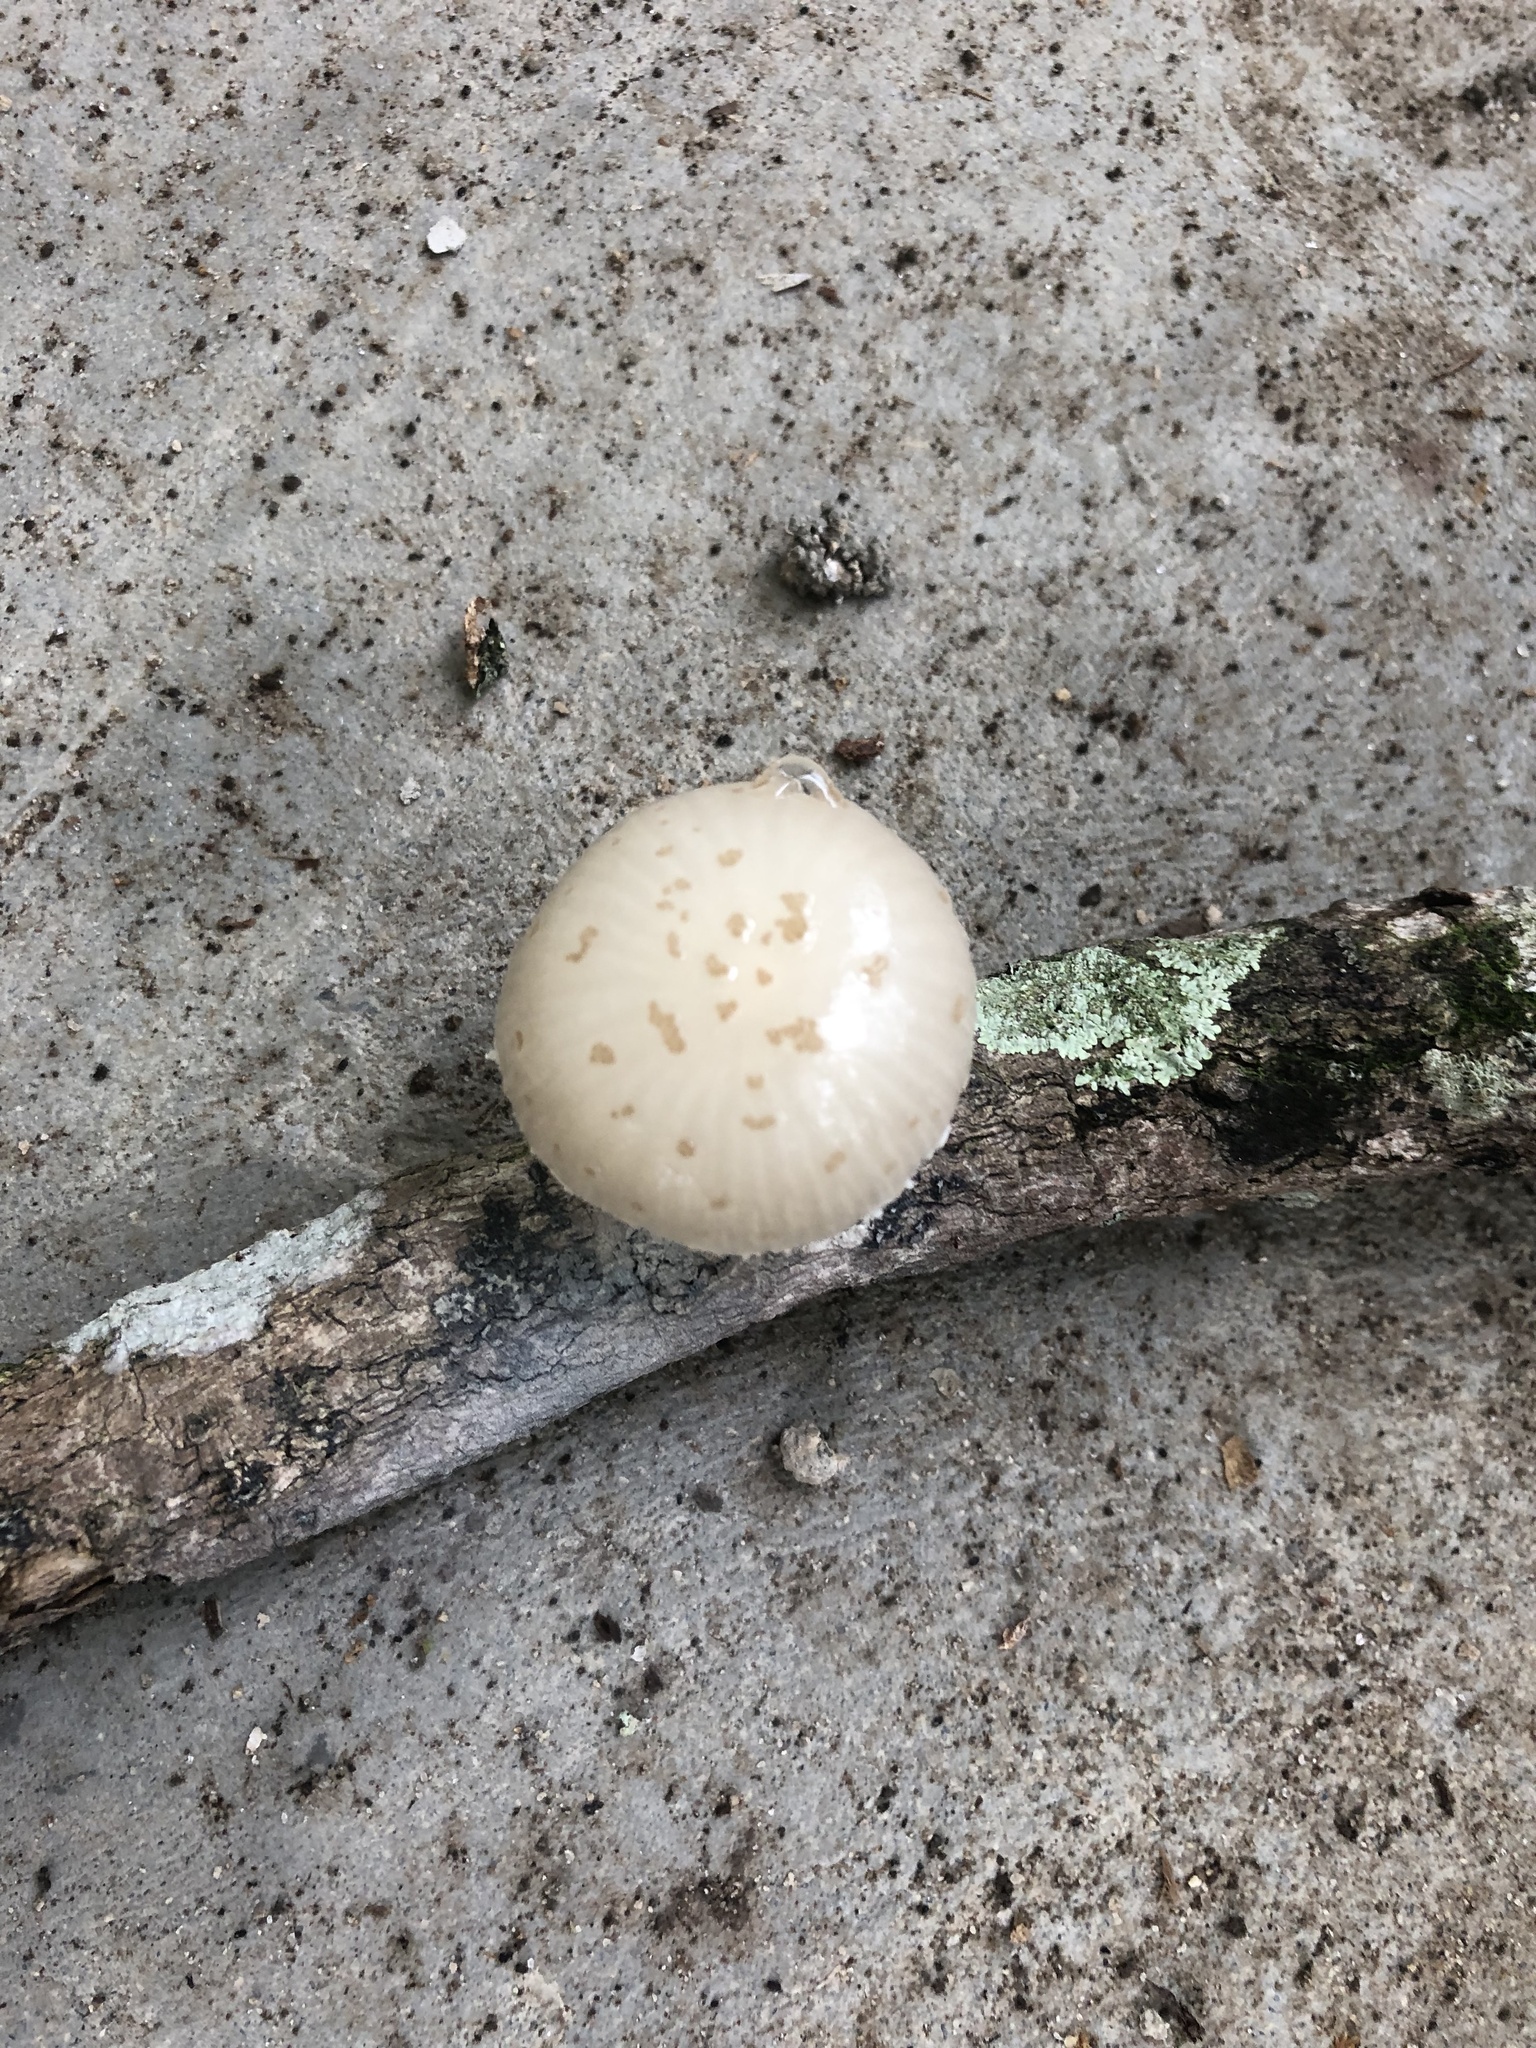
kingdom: Fungi
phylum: Basidiomycota
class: Agaricomycetes
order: Agaricales
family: Physalacriaceae
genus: Oudemansiella
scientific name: Oudemansiella canarii
